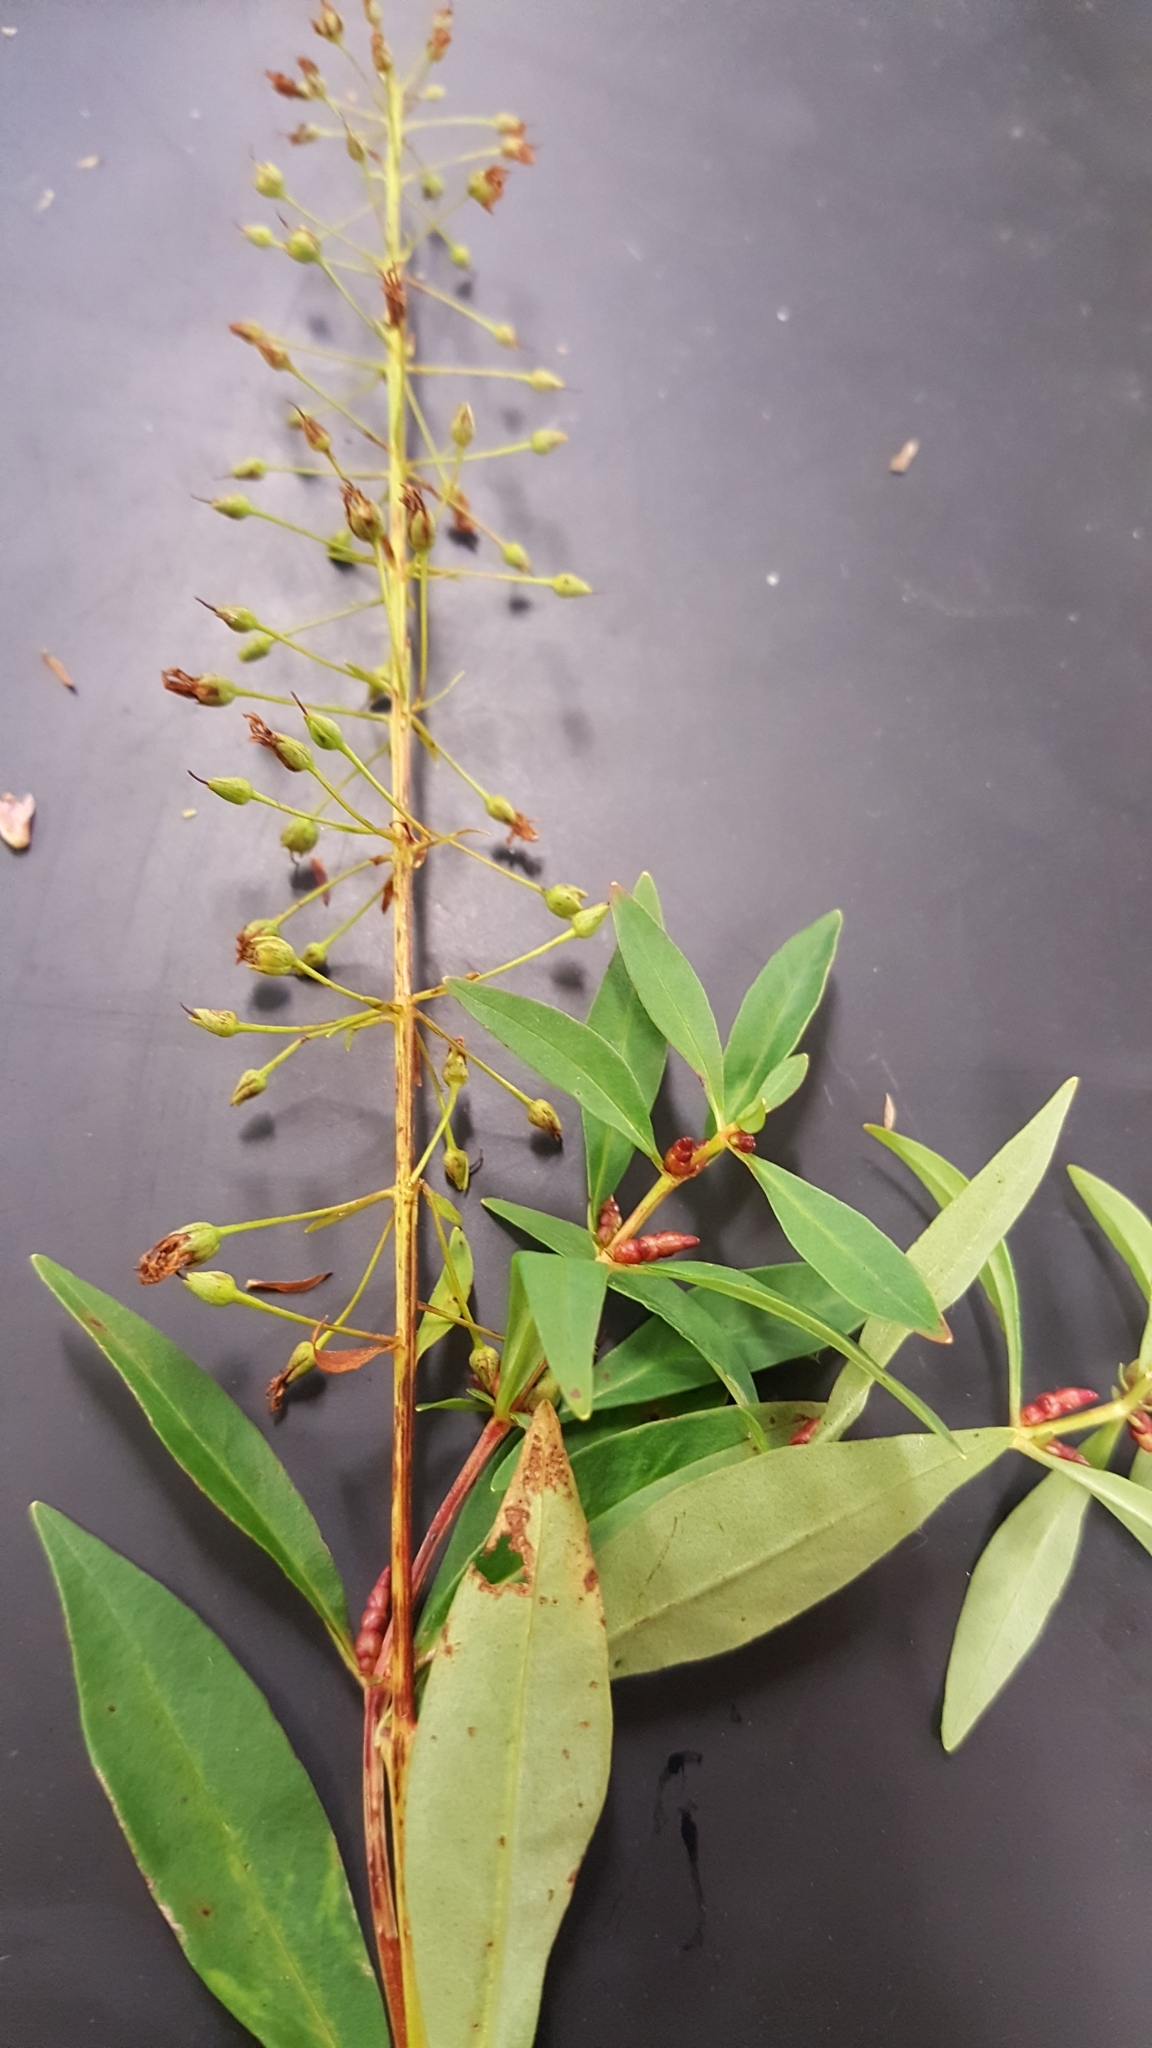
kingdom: Plantae
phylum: Tracheophyta
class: Magnoliopsida
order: Ericales
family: Primulaceae
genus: Lysimachia
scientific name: Lysimachia terrestris
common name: Lake loosestrife
